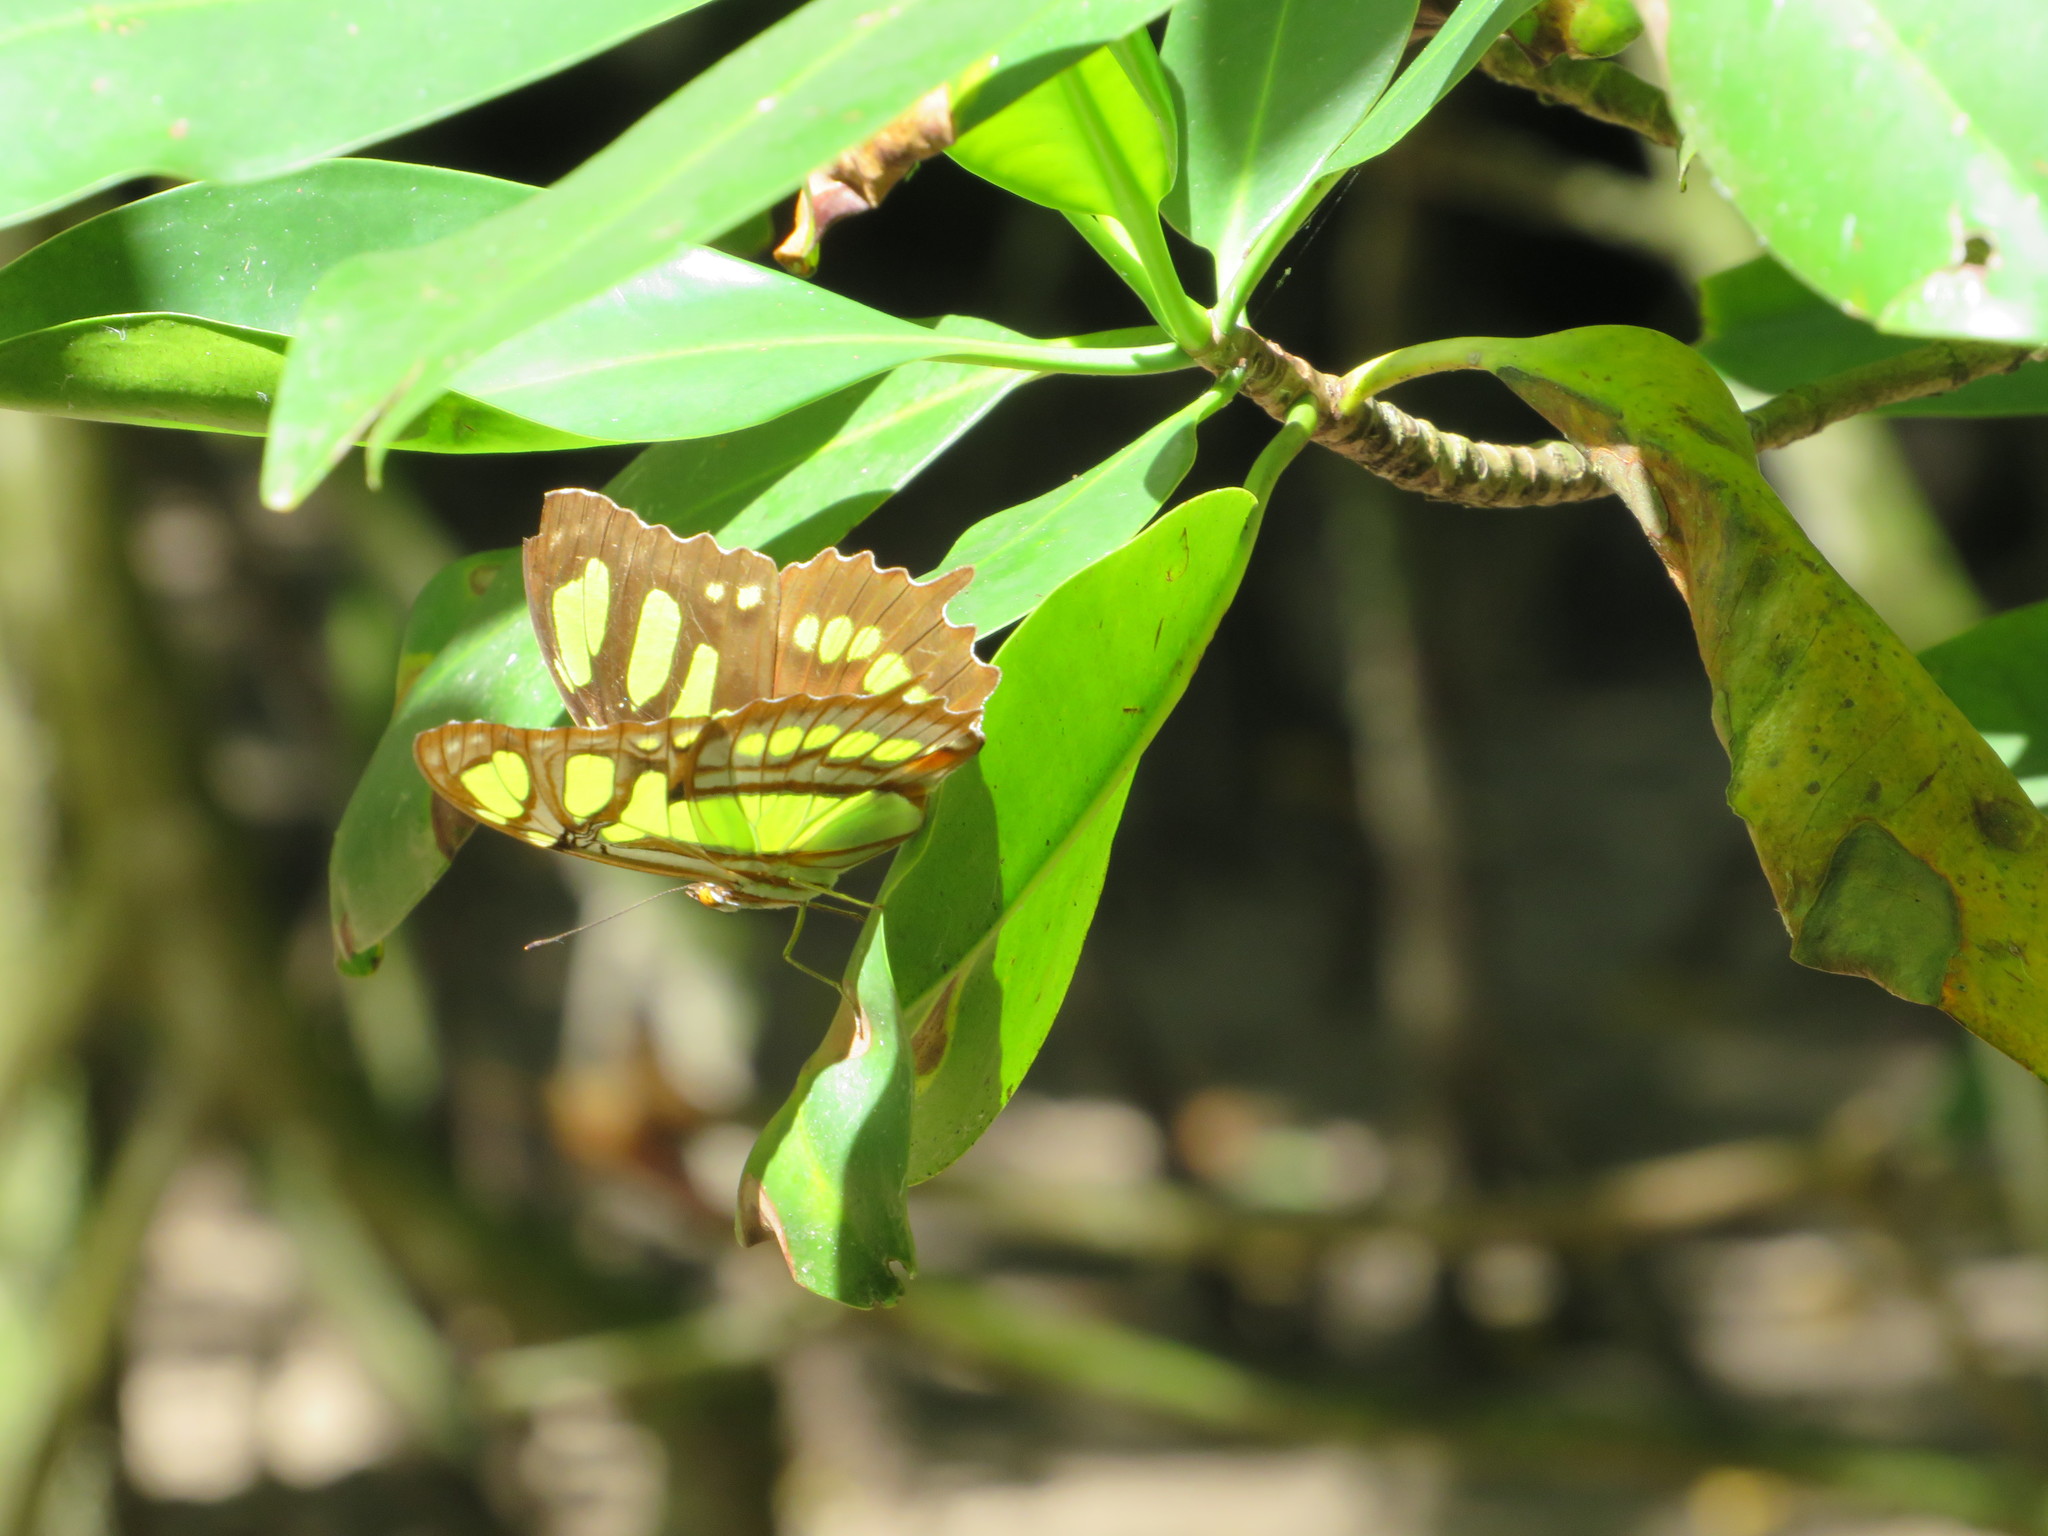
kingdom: Animalia
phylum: Arthropoda
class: Insecta
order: Lepidoptera
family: Nymphalidae
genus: Siproeta
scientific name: Siproeta stelenes
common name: Malachite
